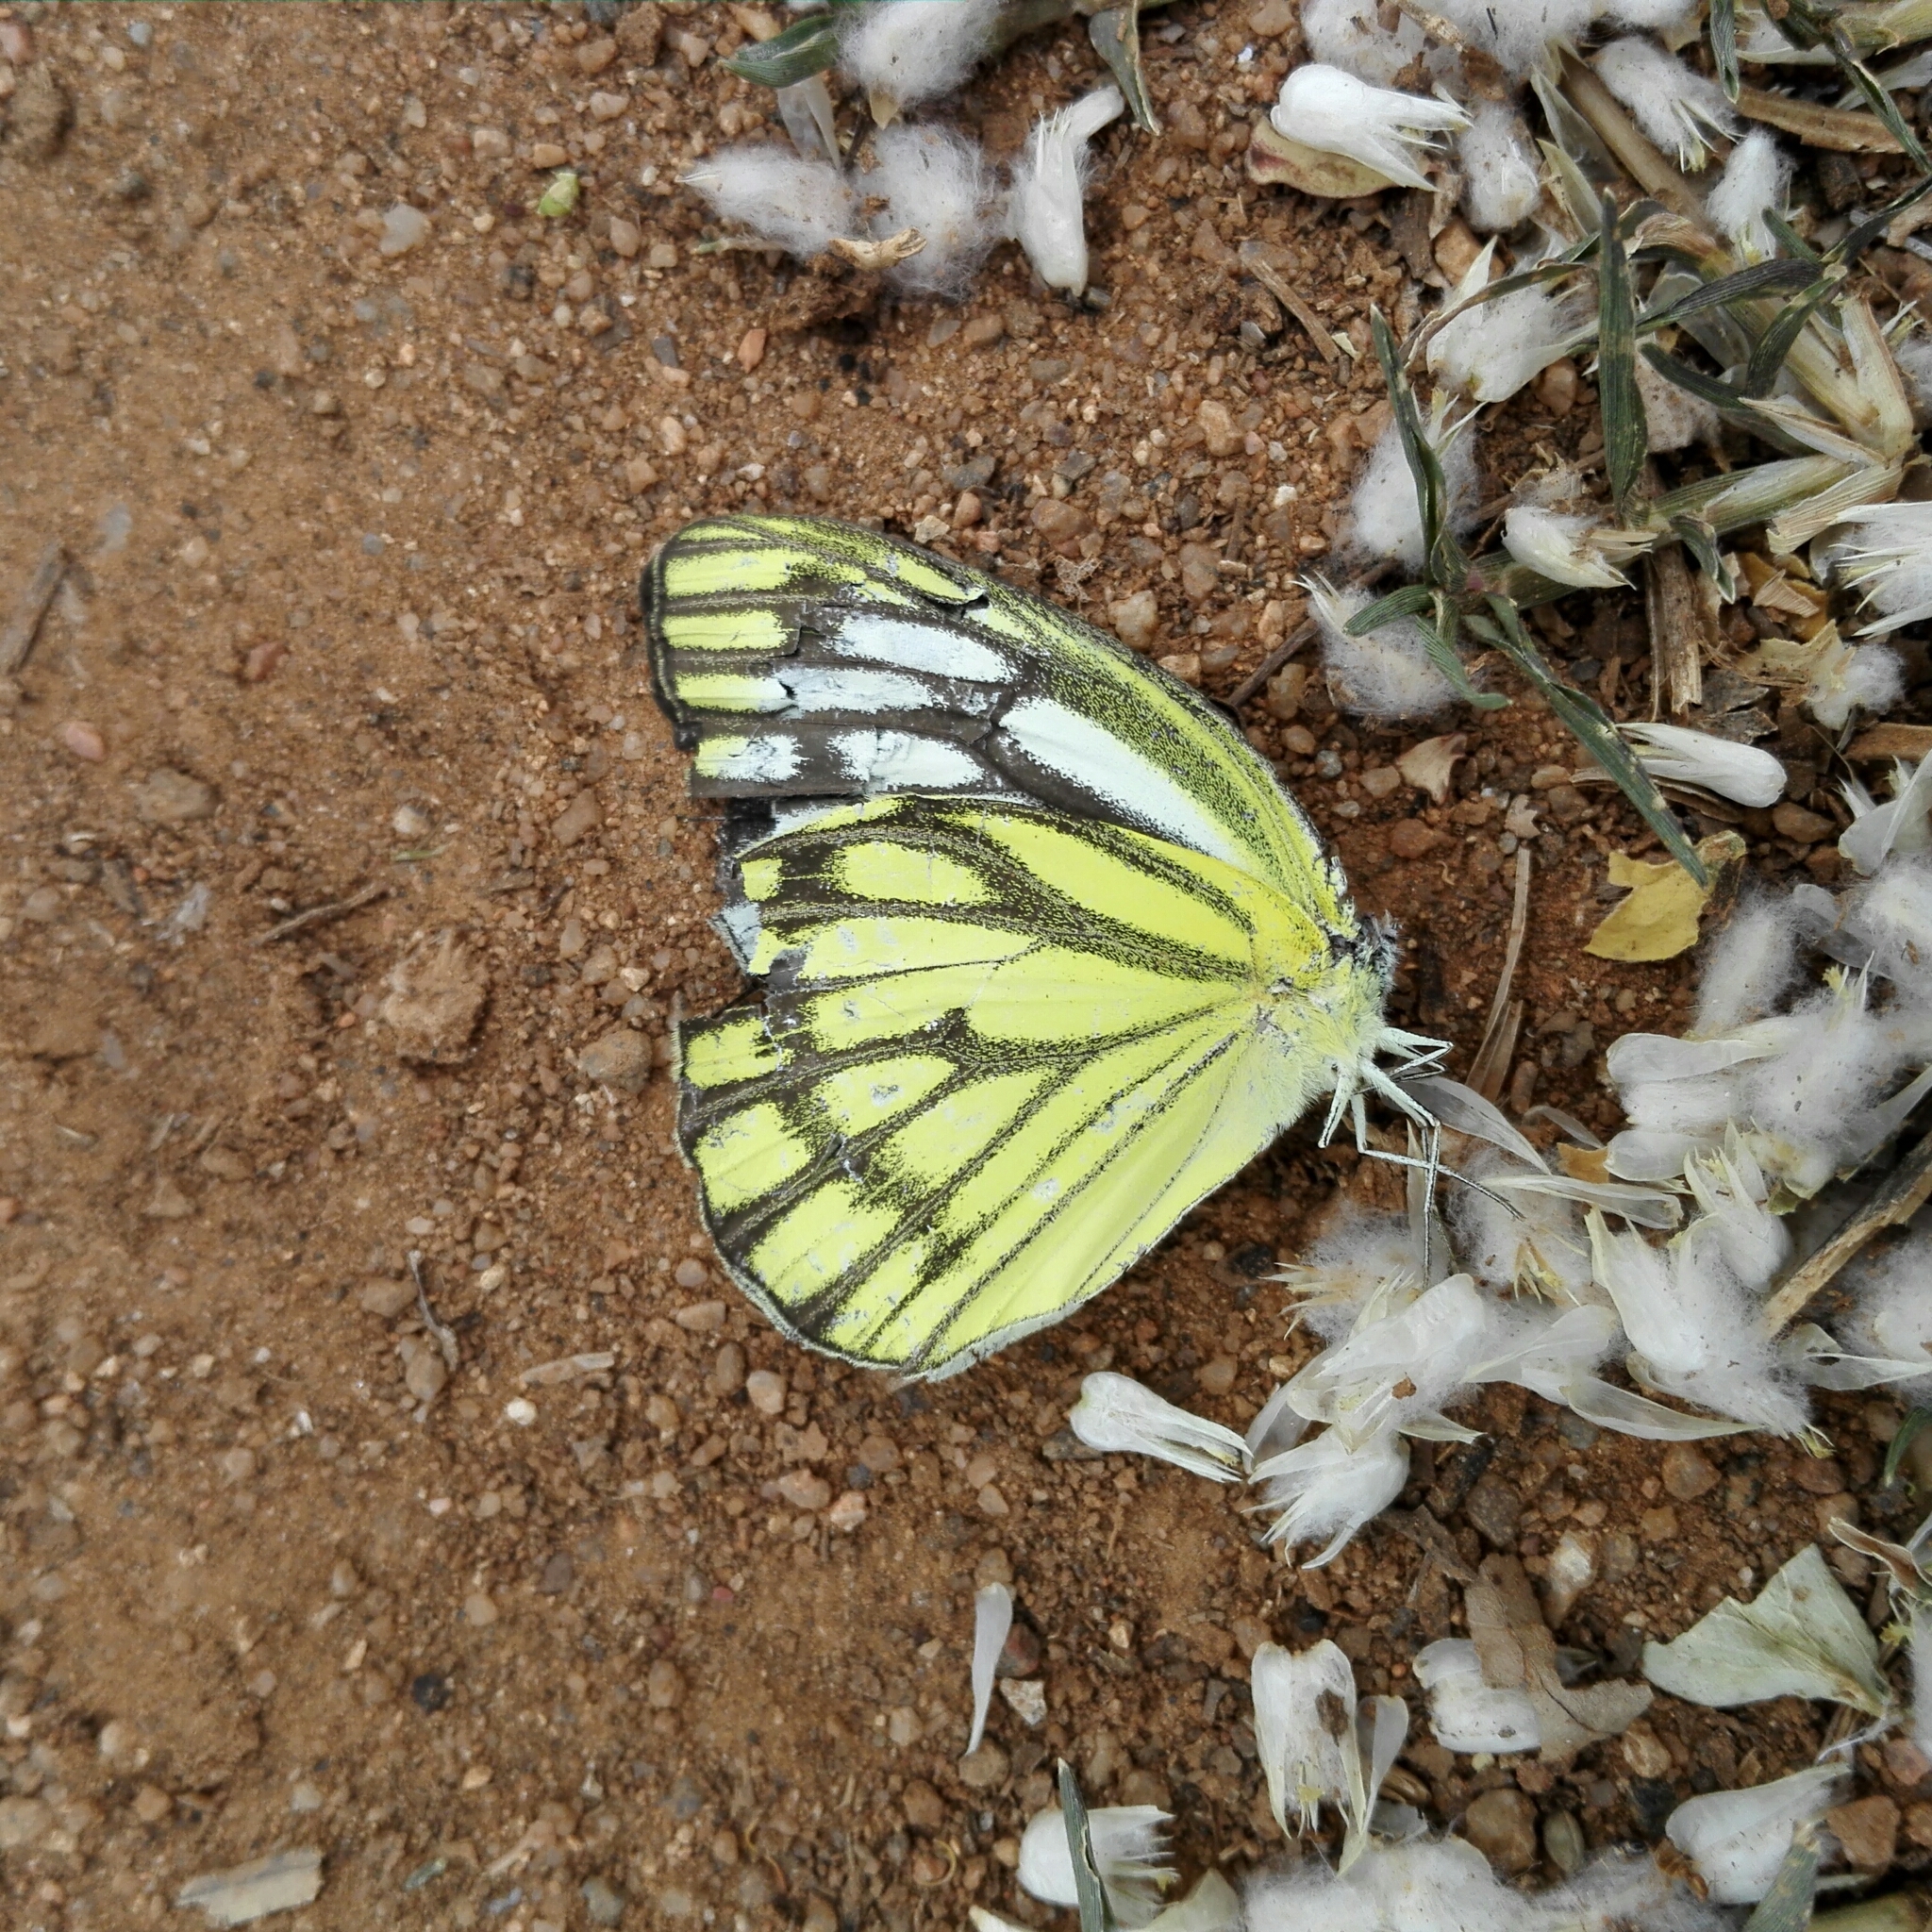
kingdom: Animalia
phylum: Arthropoda
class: Insecta
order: Lepidoptera
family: Pieridae
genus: Cepora
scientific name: Cepora nerissa
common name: Common gull
